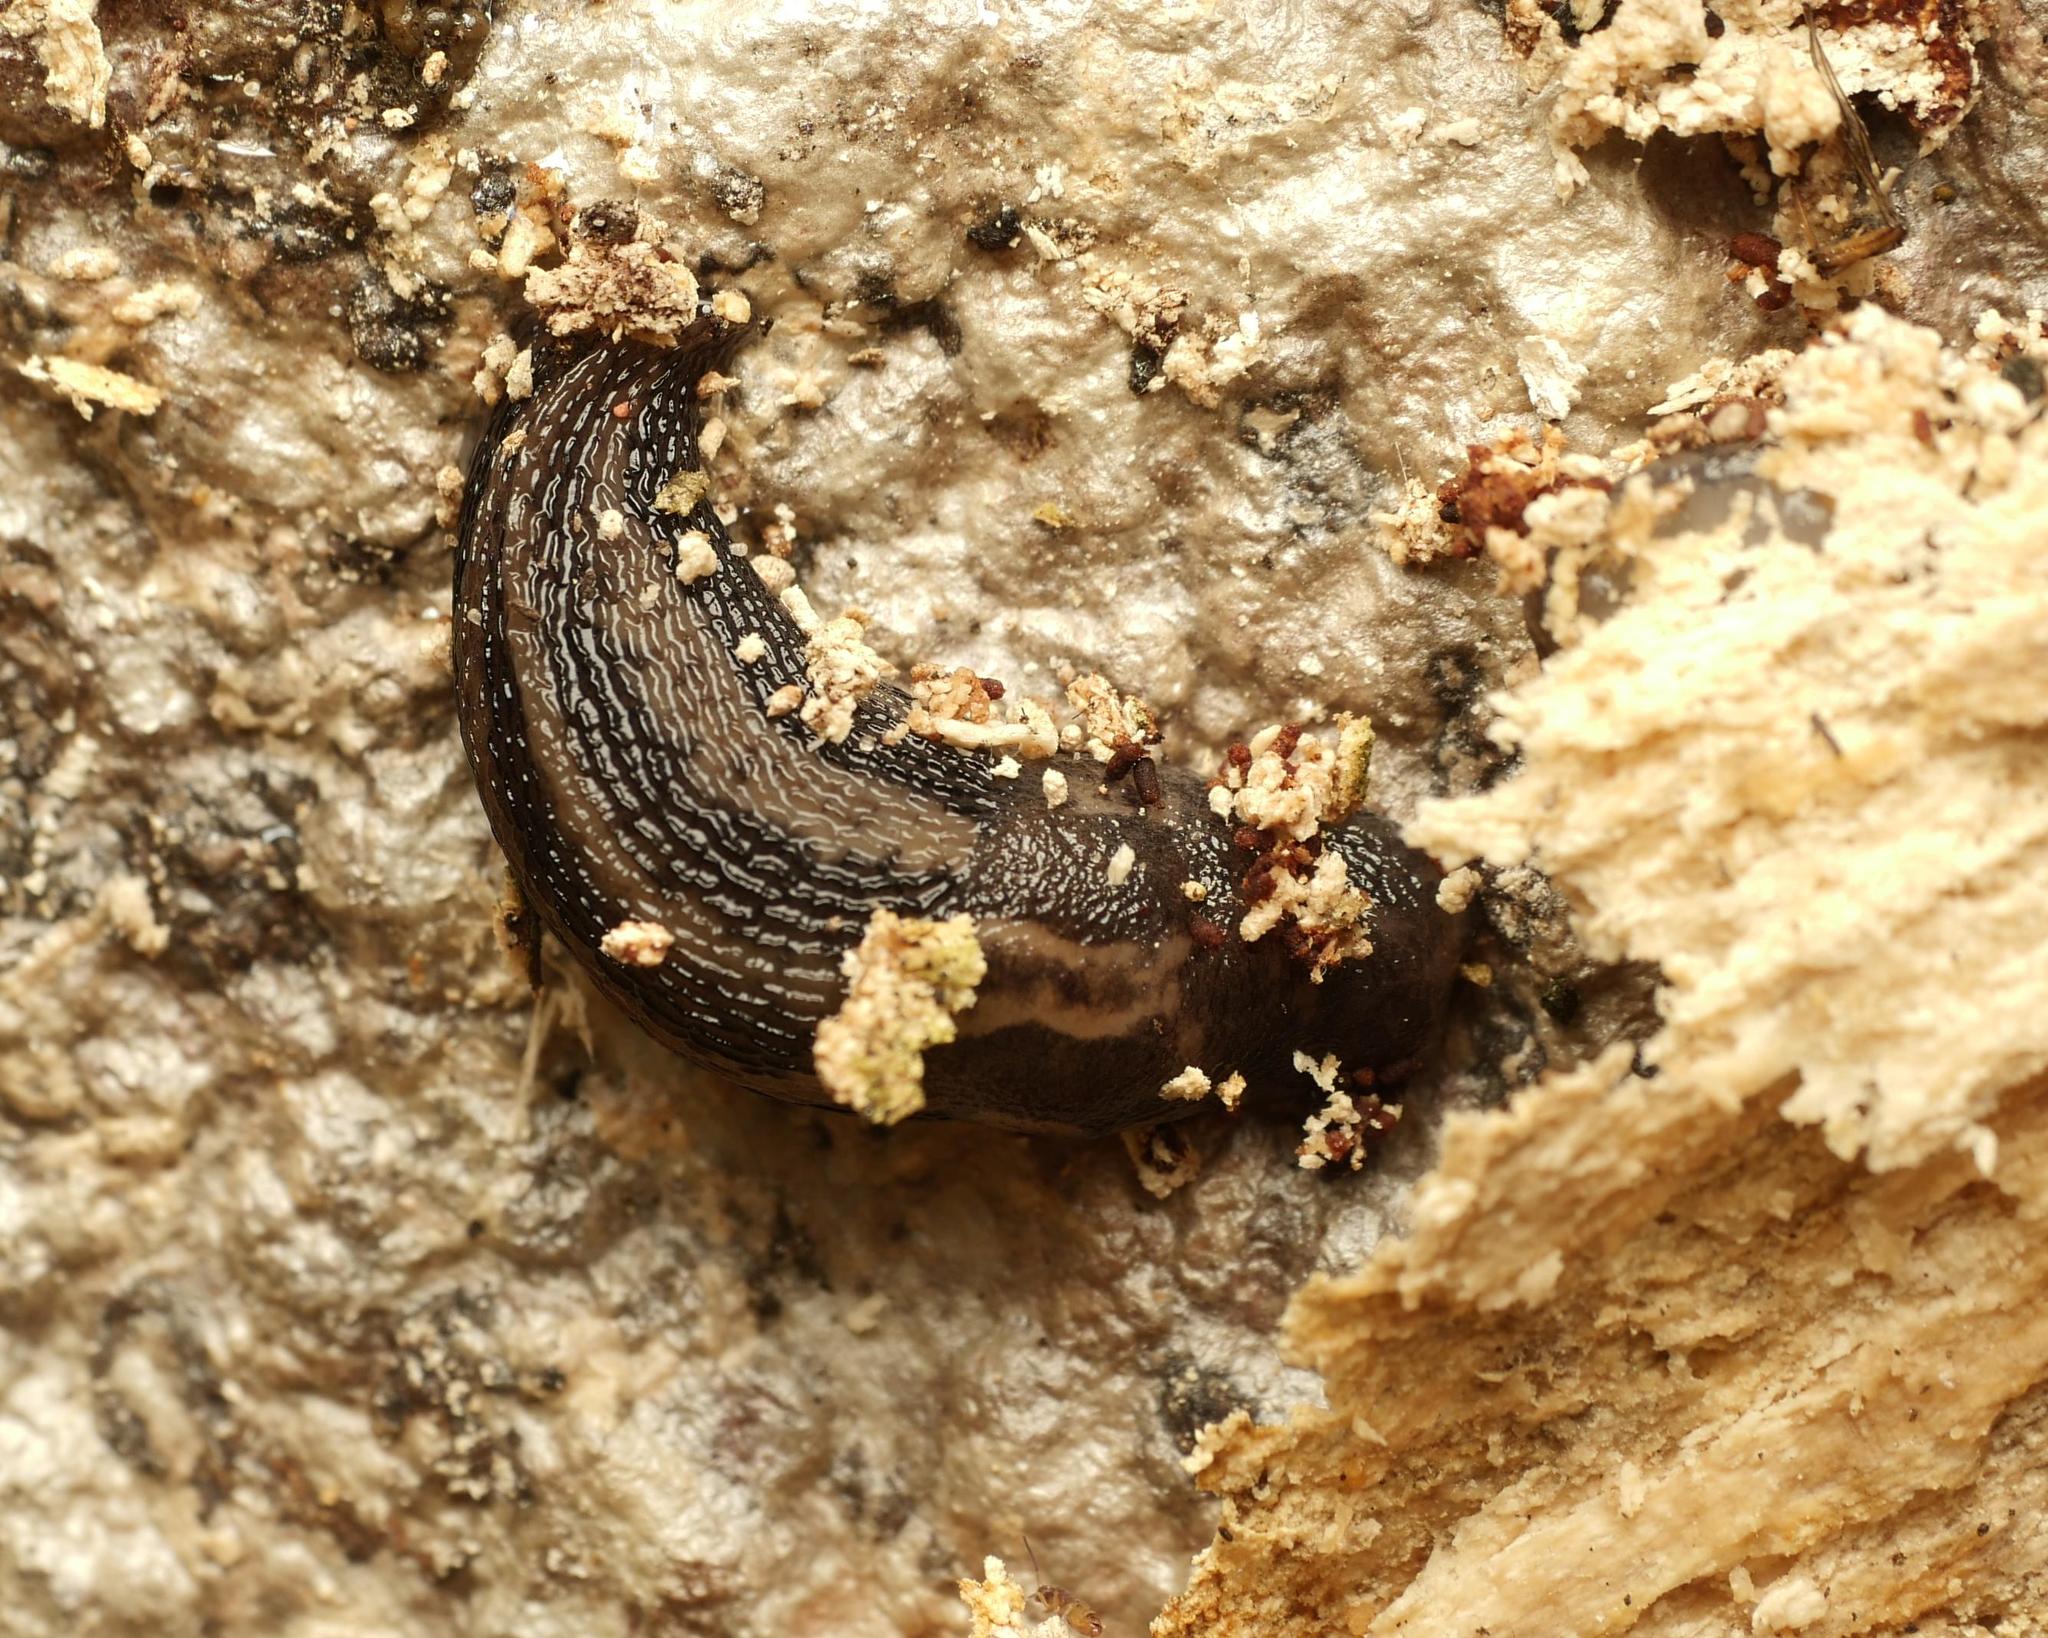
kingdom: Animalia
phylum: Mollusca
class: Gastropoda
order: Stylommatophora
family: Limacidae
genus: Limax
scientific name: Limax maximus
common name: Great grey slug
